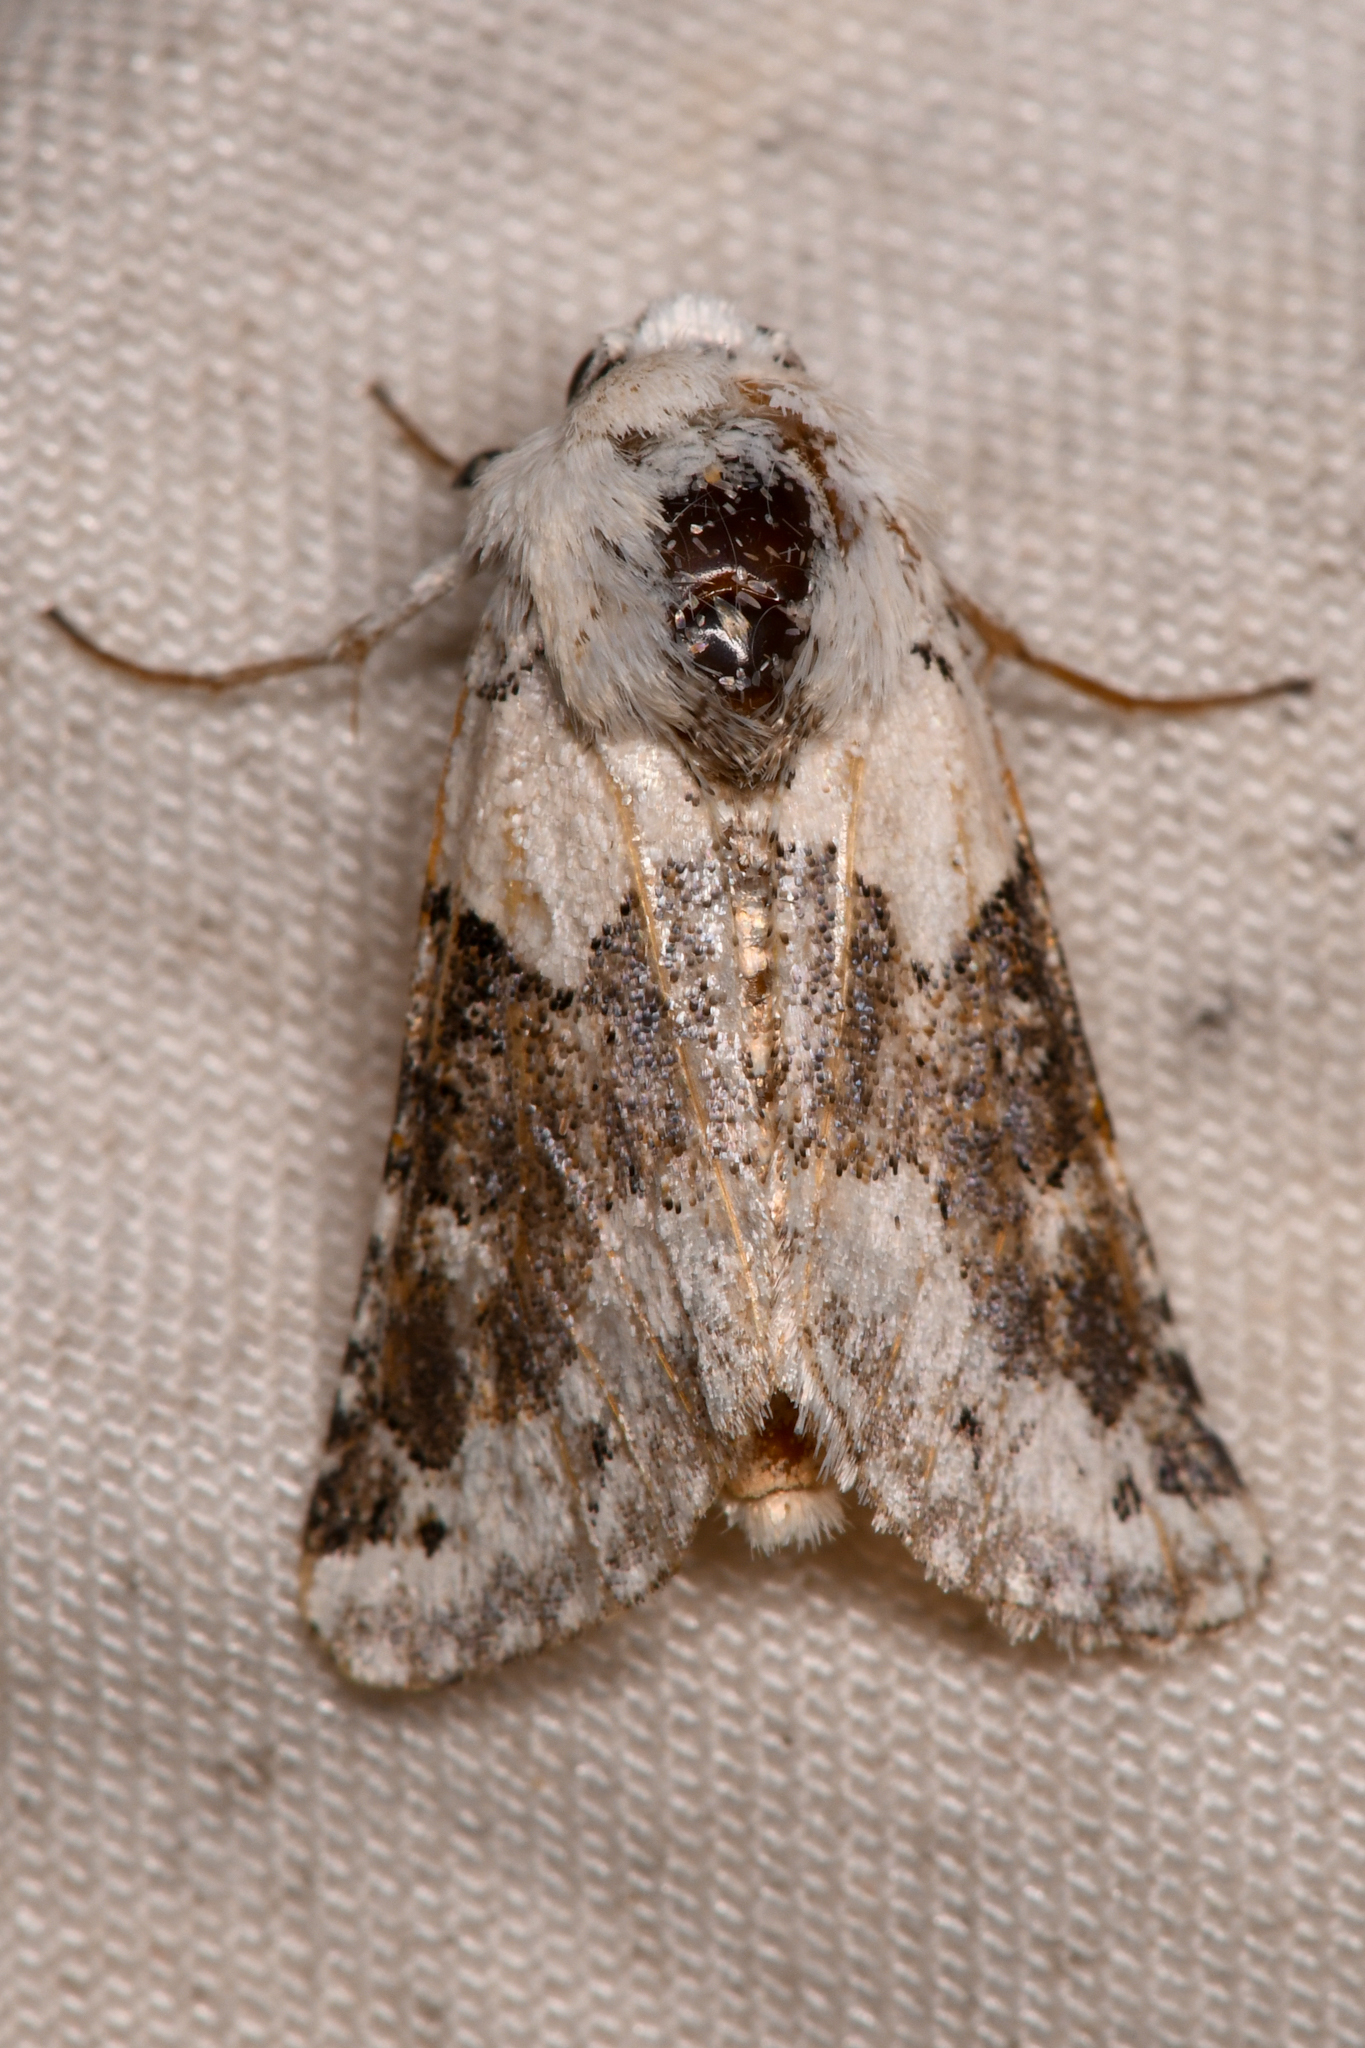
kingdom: Animalia
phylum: Arthropoda
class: Insecta
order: Lepidoptera
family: Noctuidae
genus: Triocnemis
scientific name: Triocnemis saporis
